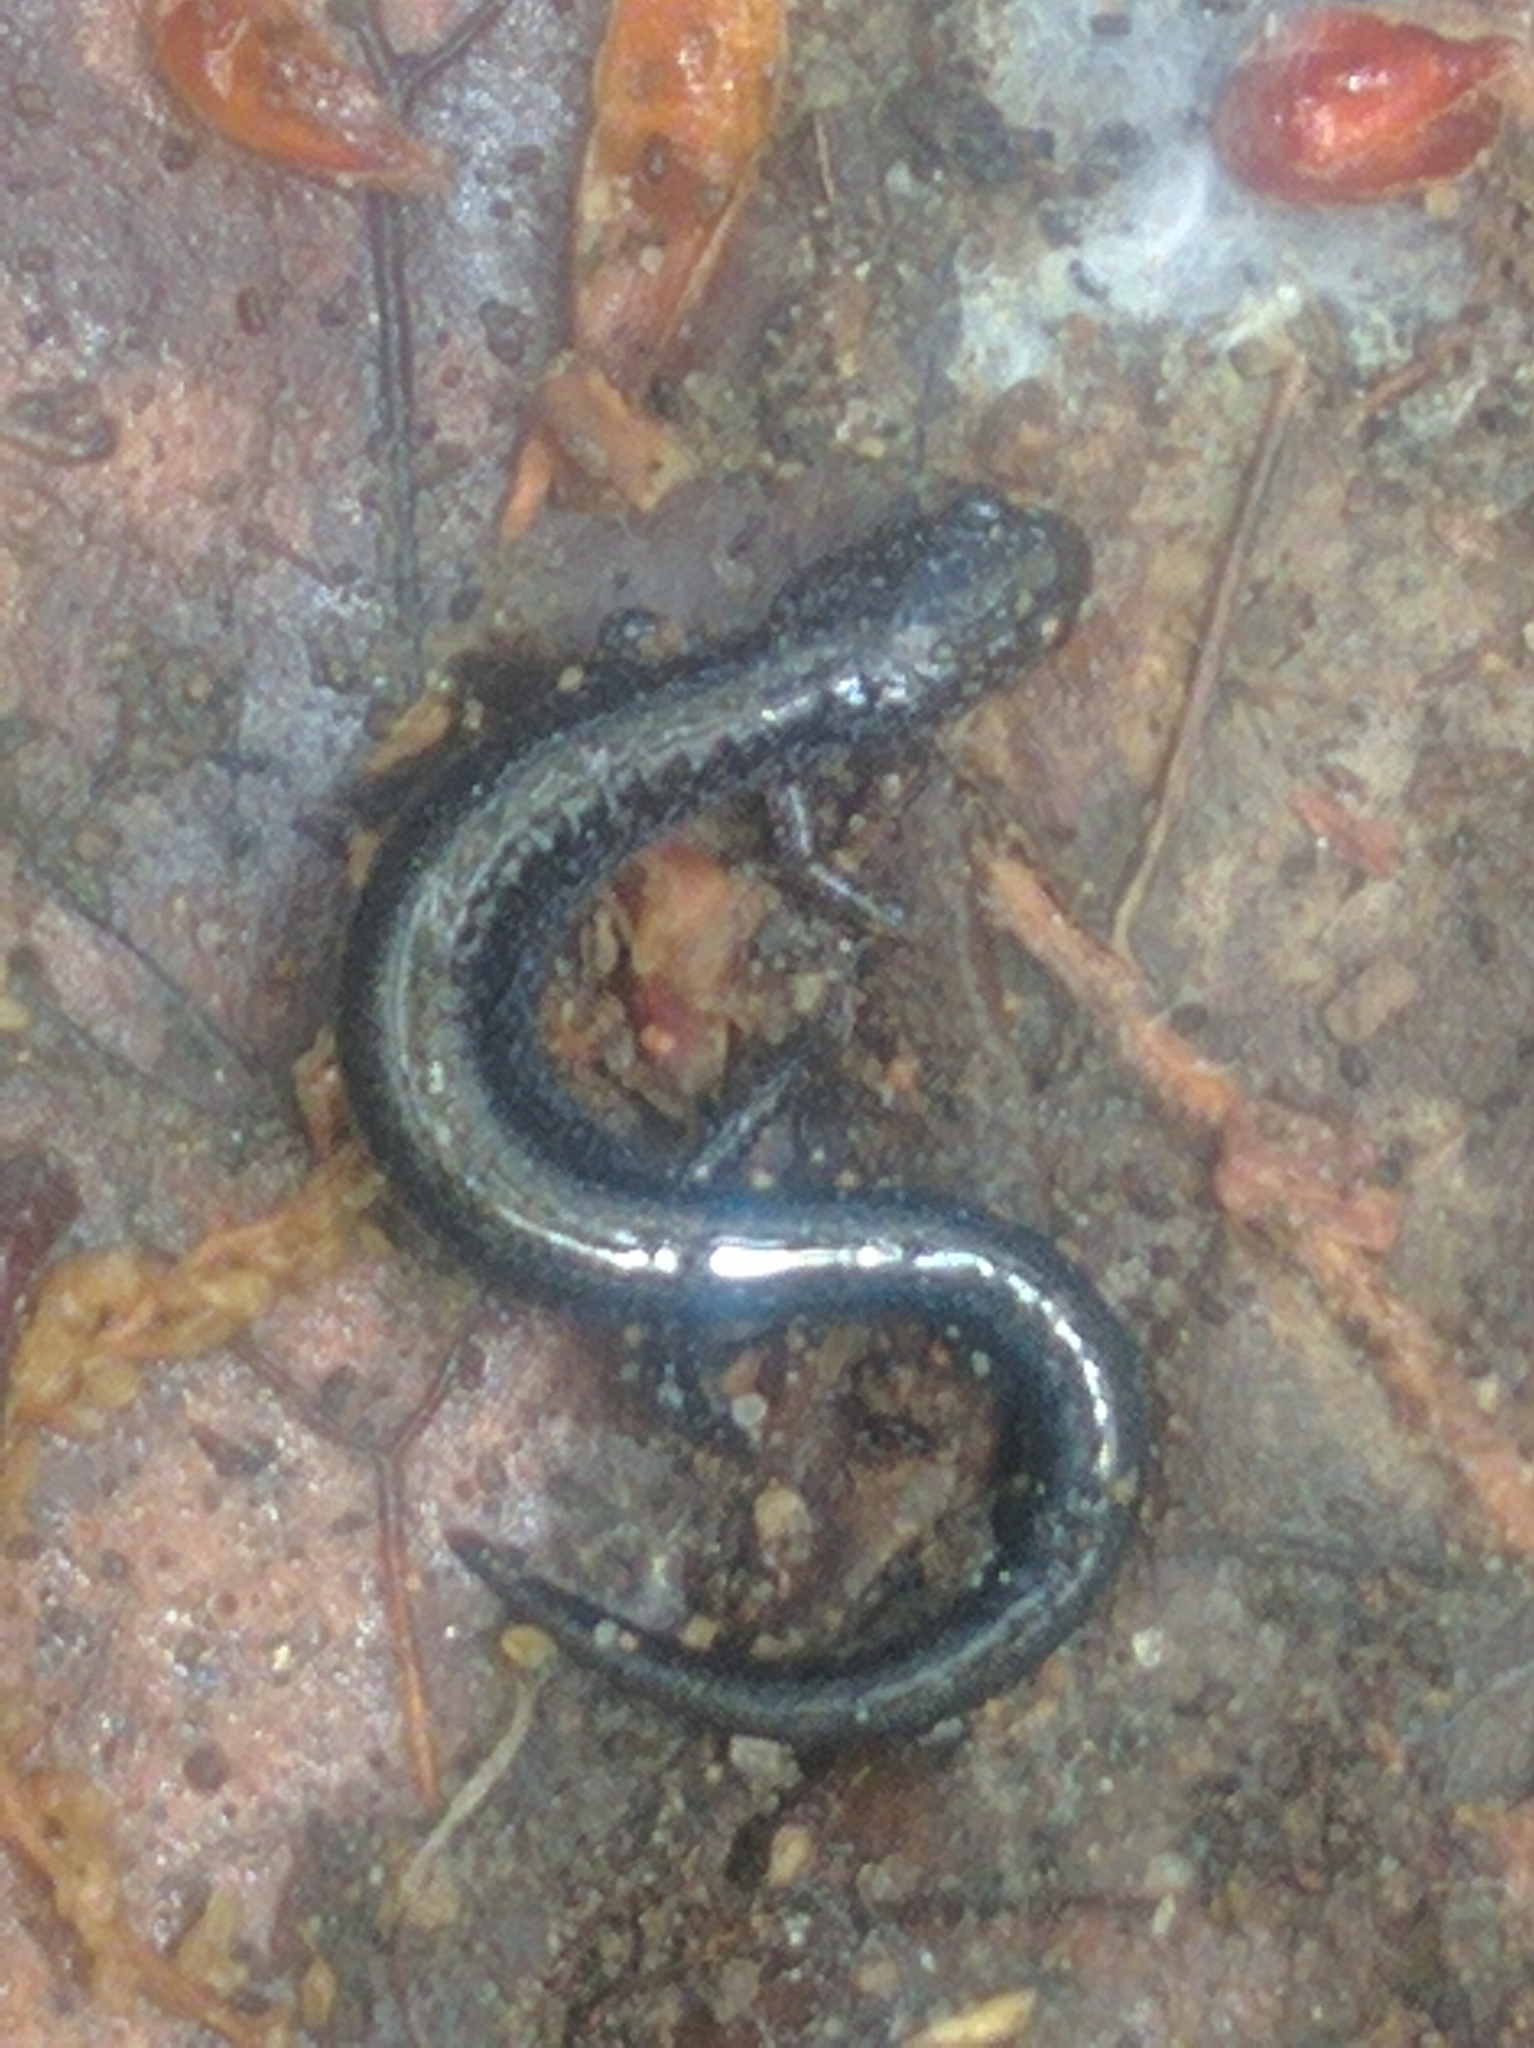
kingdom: Animalia
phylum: Chordata
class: Amphibia
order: Caudata
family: Plethodontidae
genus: Plethodon
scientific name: Plethodon cinereus
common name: Redback salamander
